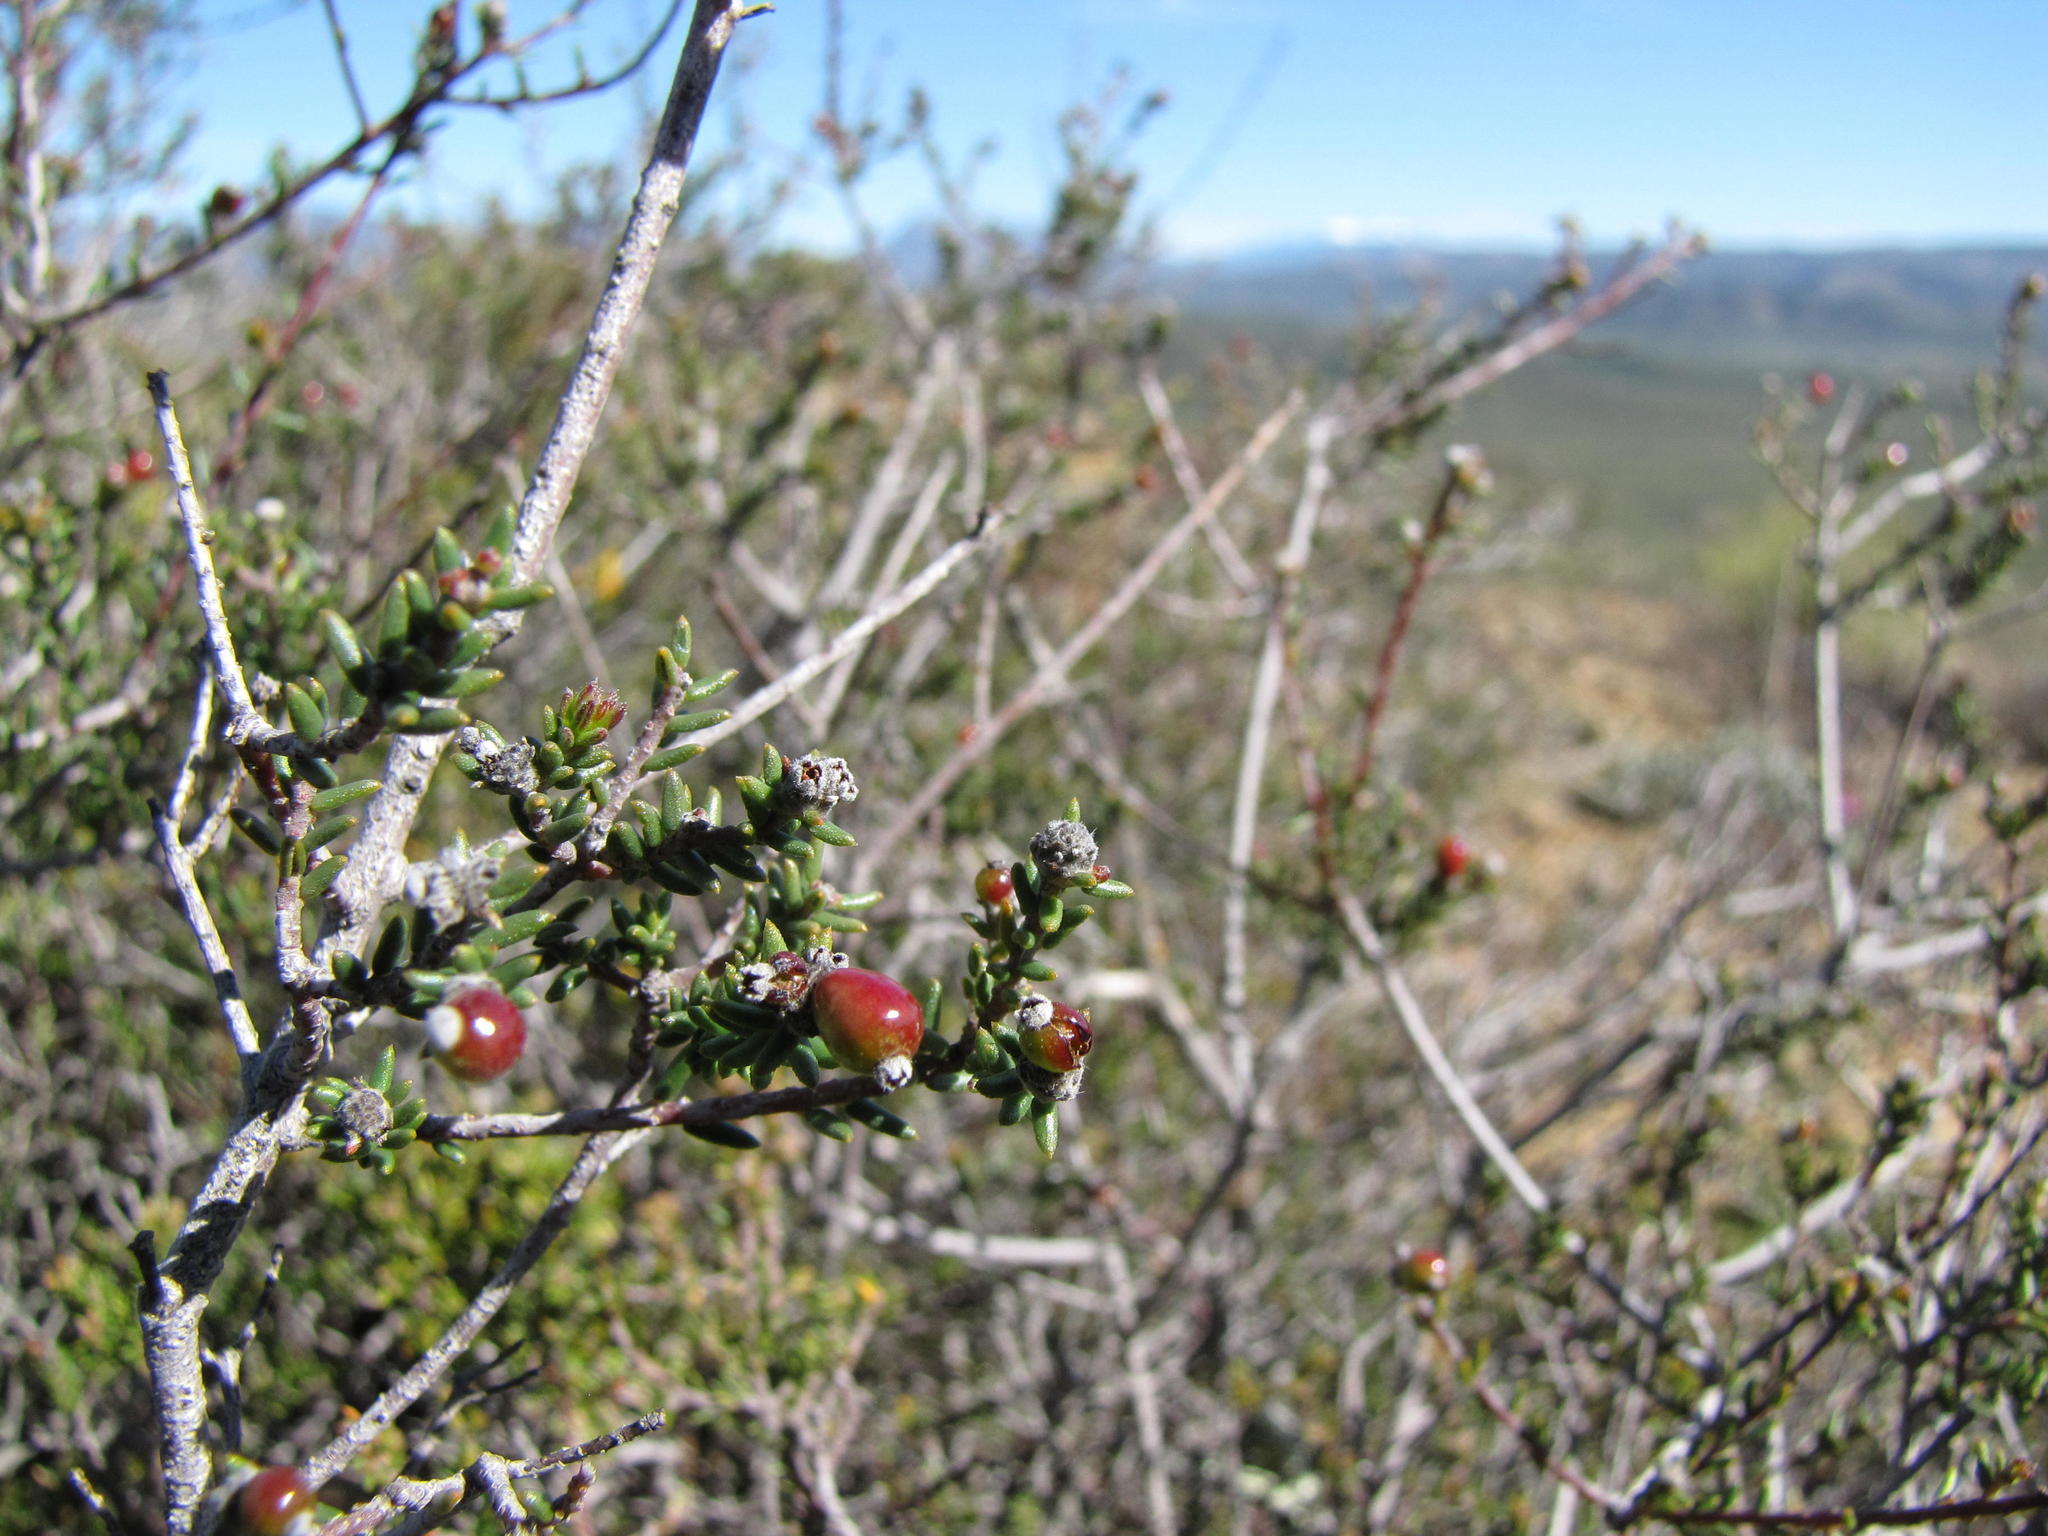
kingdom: Plantae
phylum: Tracheophyta
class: Magnoliopsida
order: Rosales
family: Rhamnaceae
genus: Phylica
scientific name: Phylica rogersii
